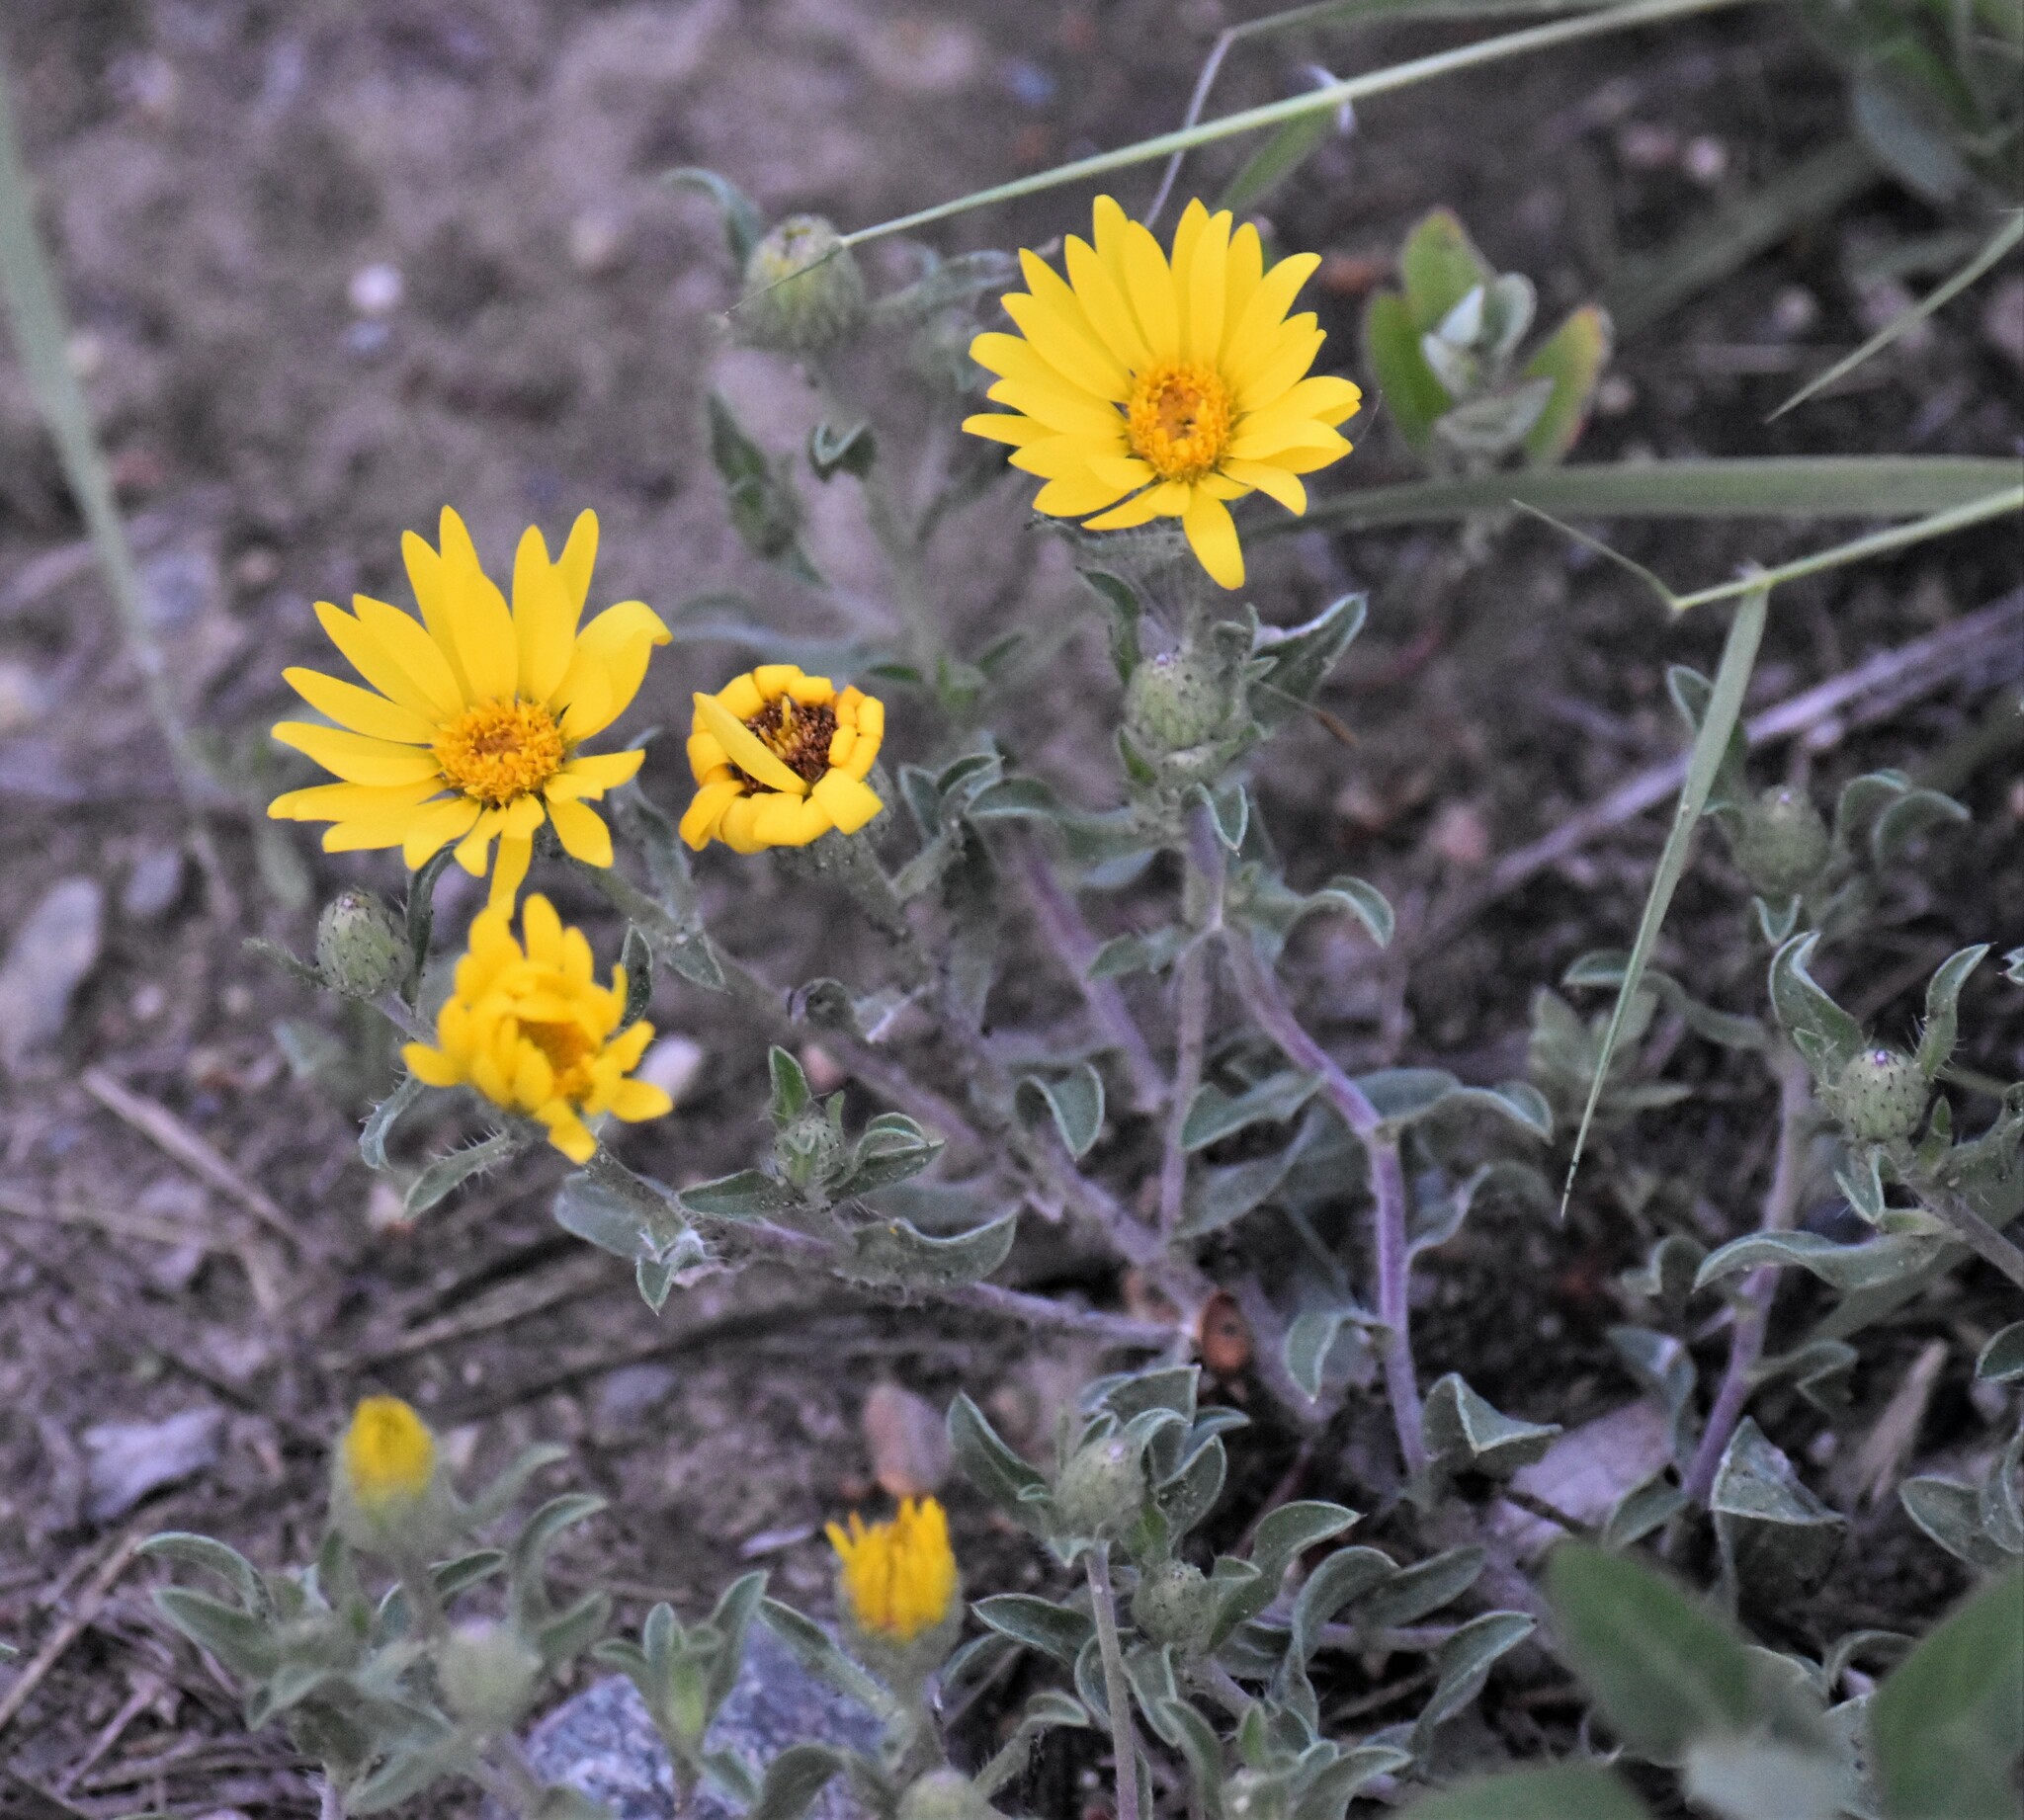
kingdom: Plantae
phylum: Tracheophyta
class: Magnoliopsida
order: Asterales
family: Asteraceae
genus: Heterotheca
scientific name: Heterotheca villosa
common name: Hairy false goldenaster
